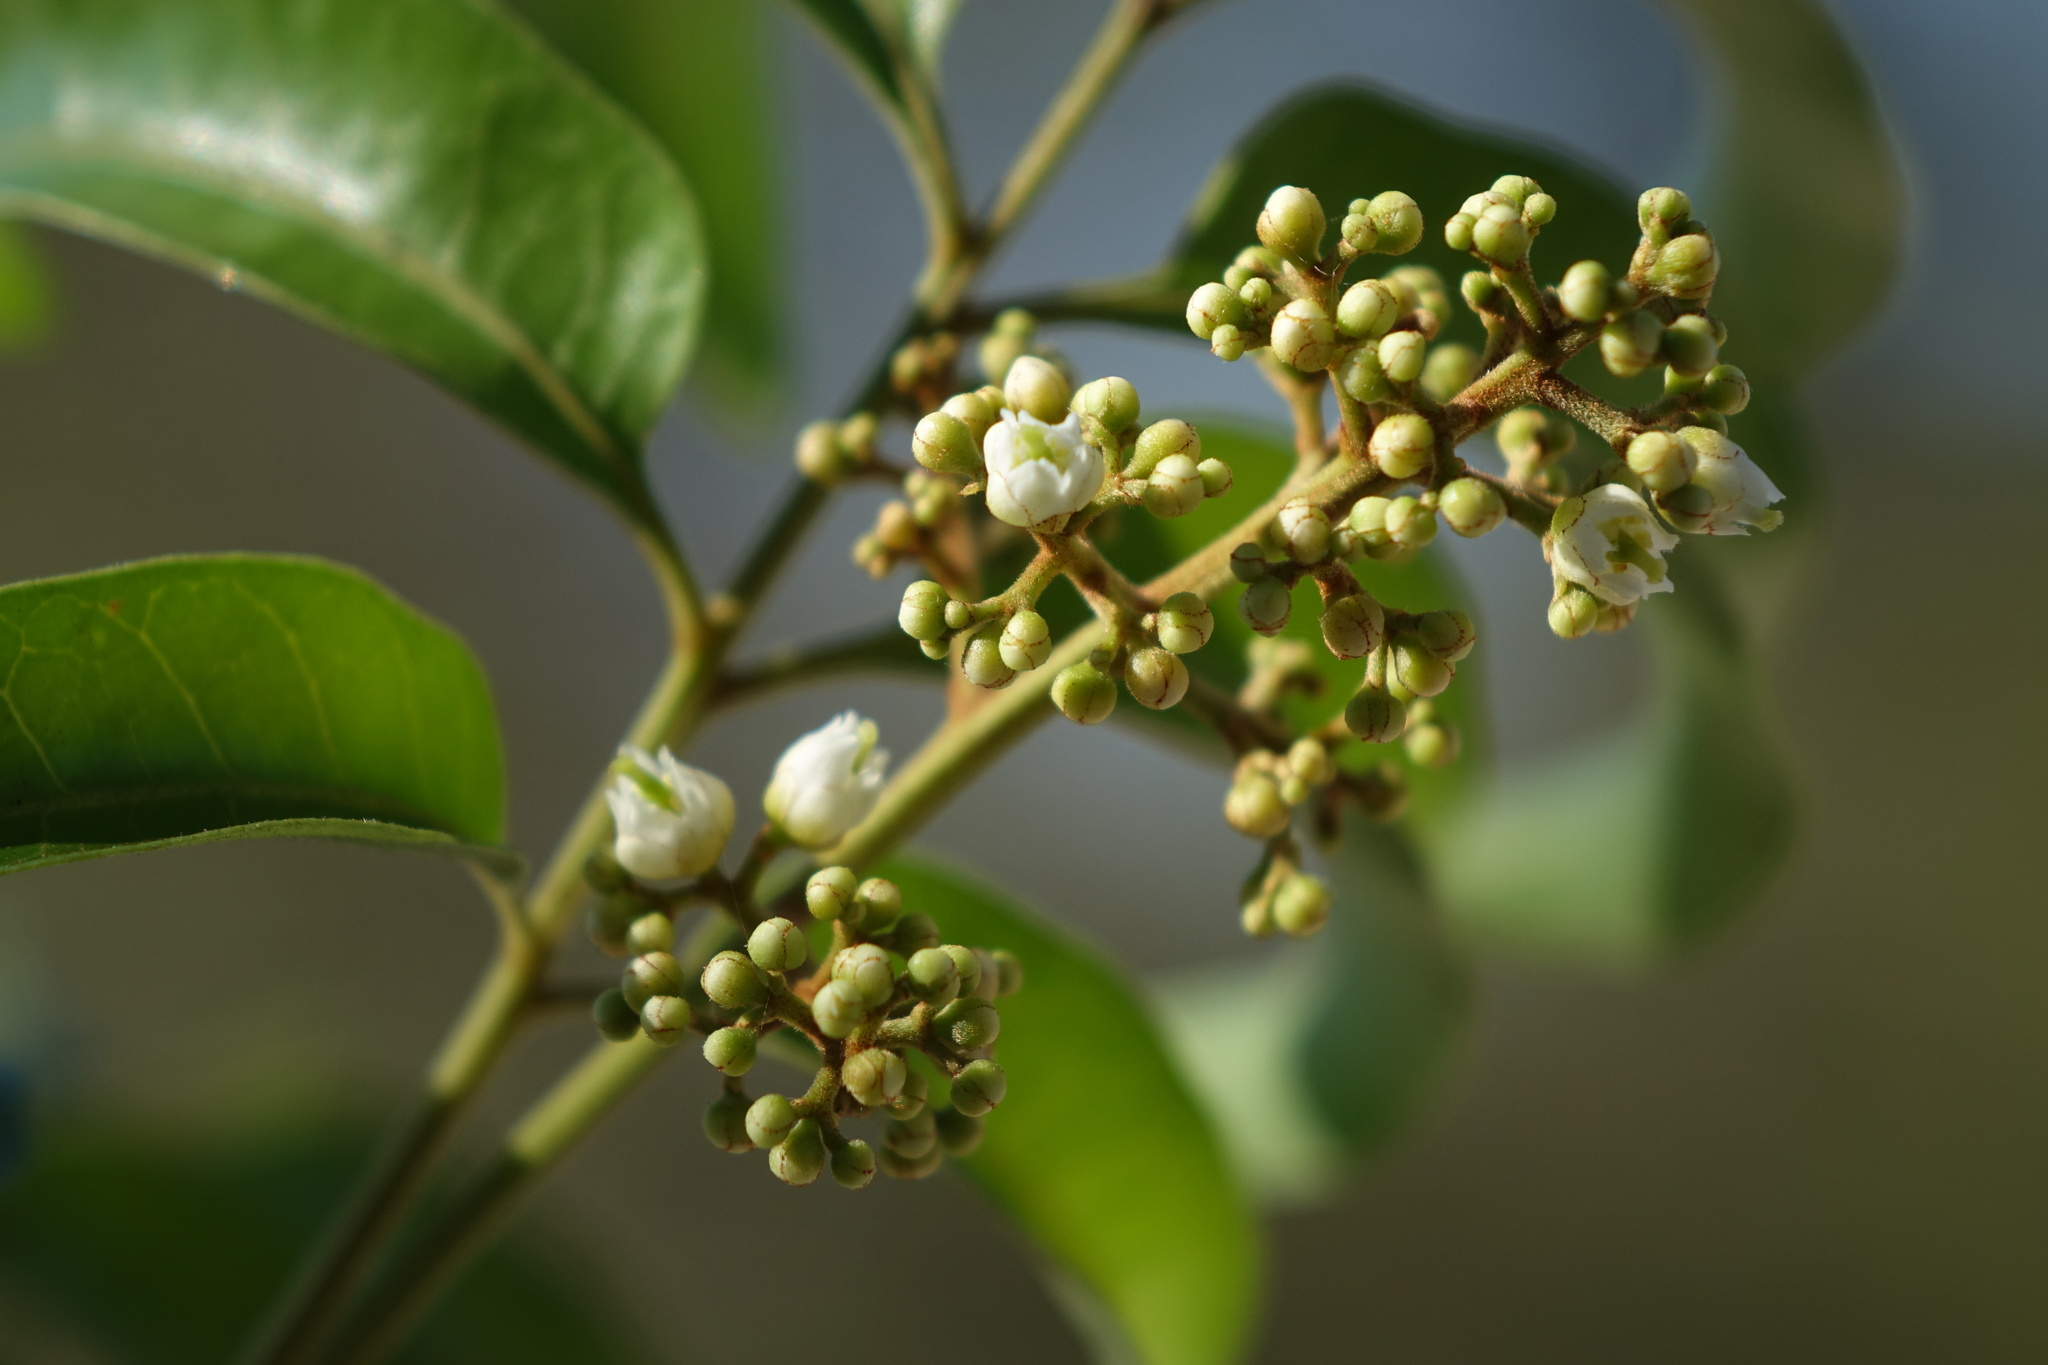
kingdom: Plantae
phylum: Tracheophyta
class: Magnoliopsida
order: Sapindales
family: Sapindaceae
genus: Tina
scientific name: Tina isaloensis
